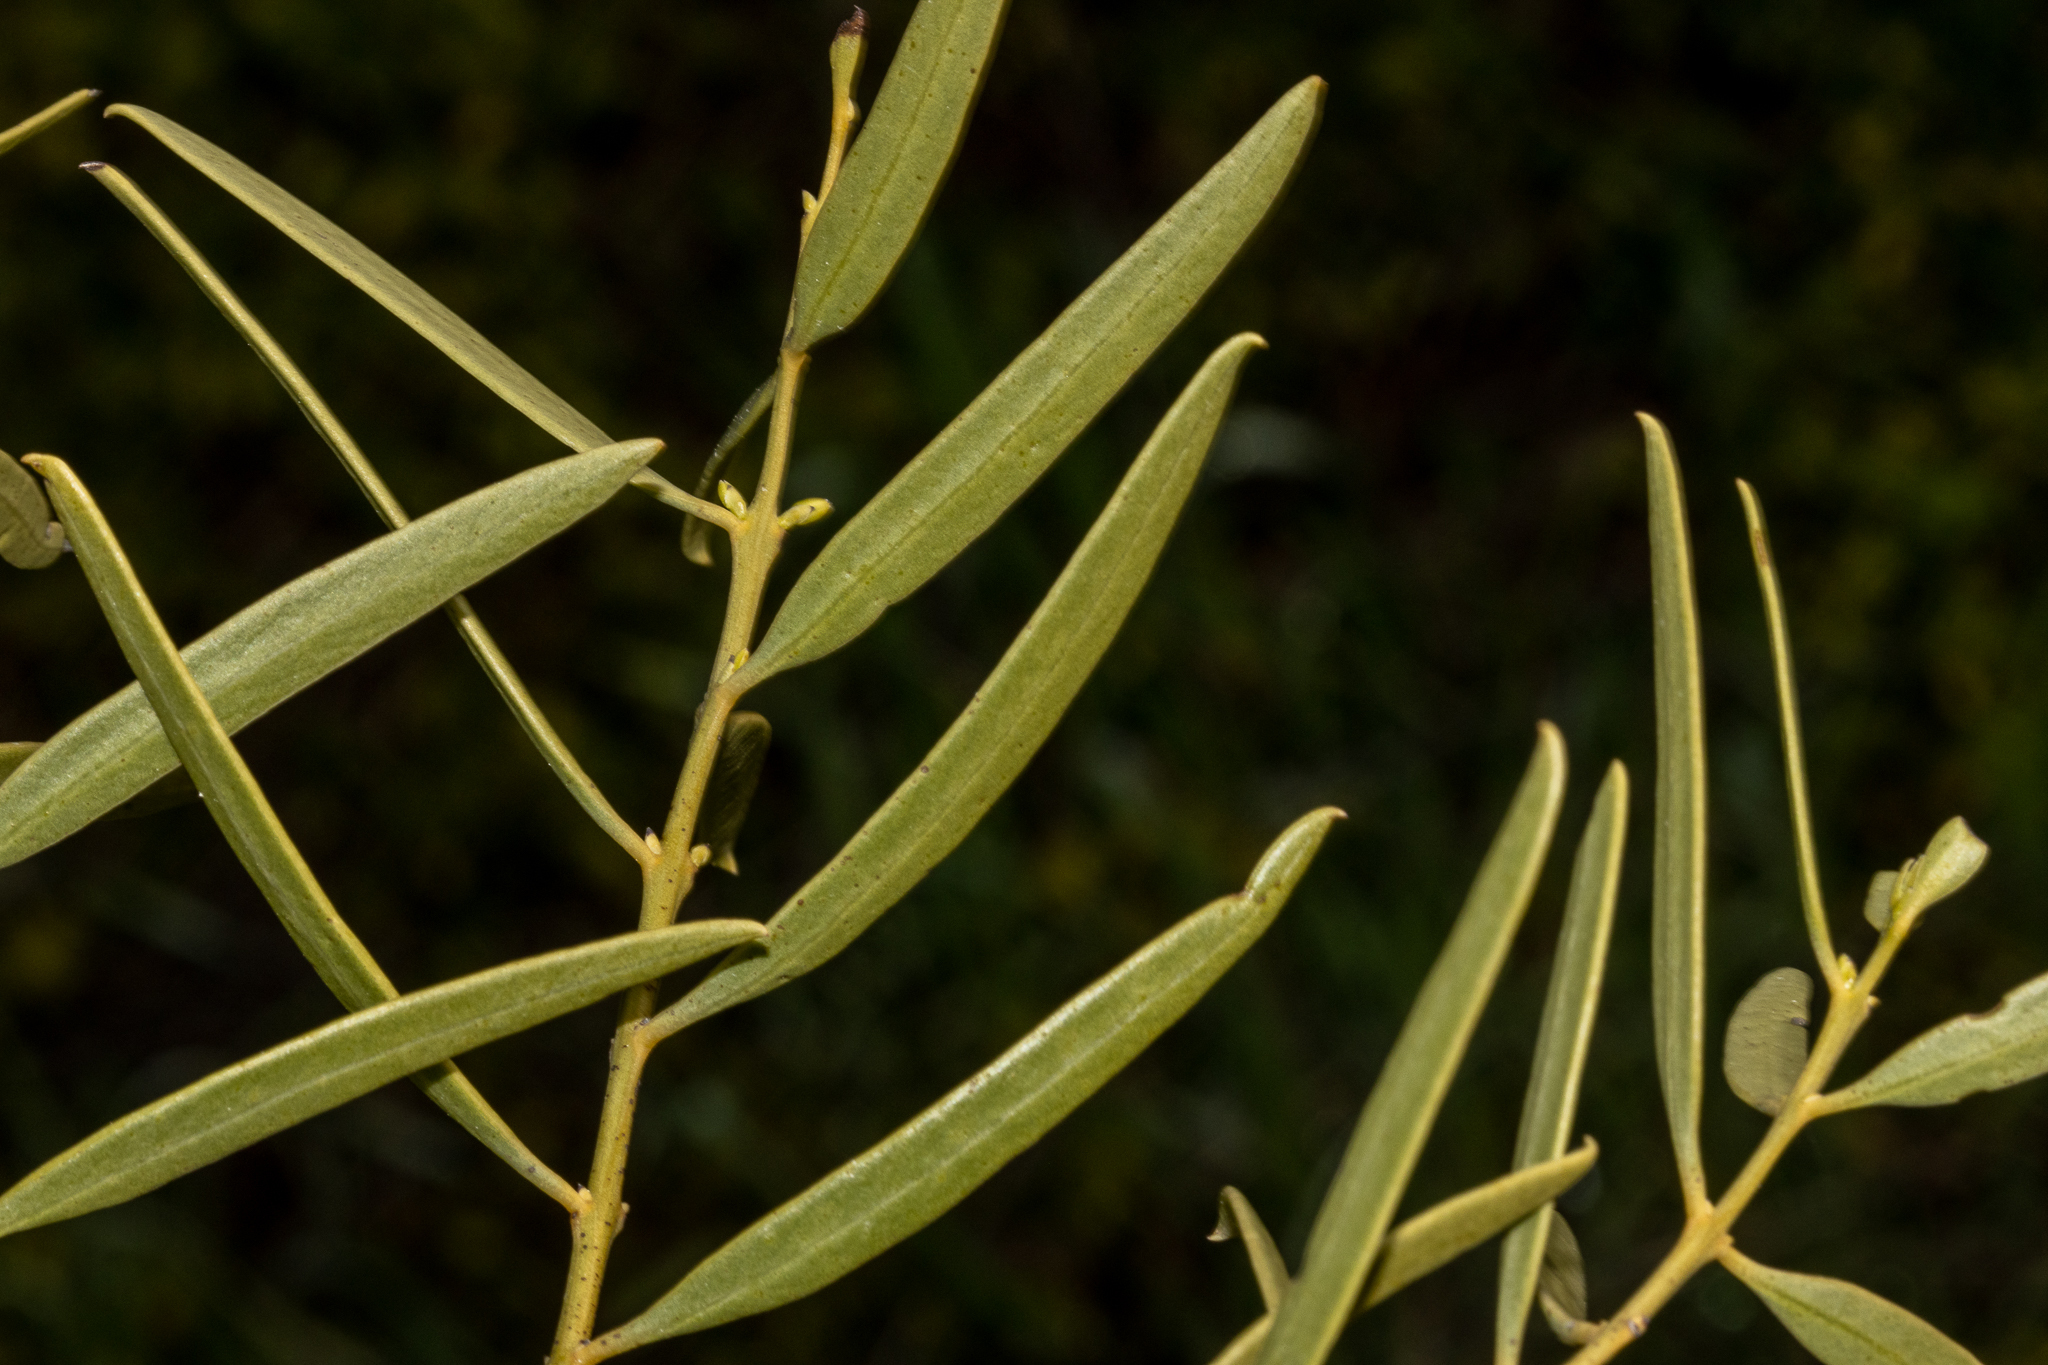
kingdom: Plantae
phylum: Tracheophyta
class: Magnoliopsida
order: Santalales
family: Santalaceae
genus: Santalum
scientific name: Santalum acuminatum
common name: Sweet quandong
